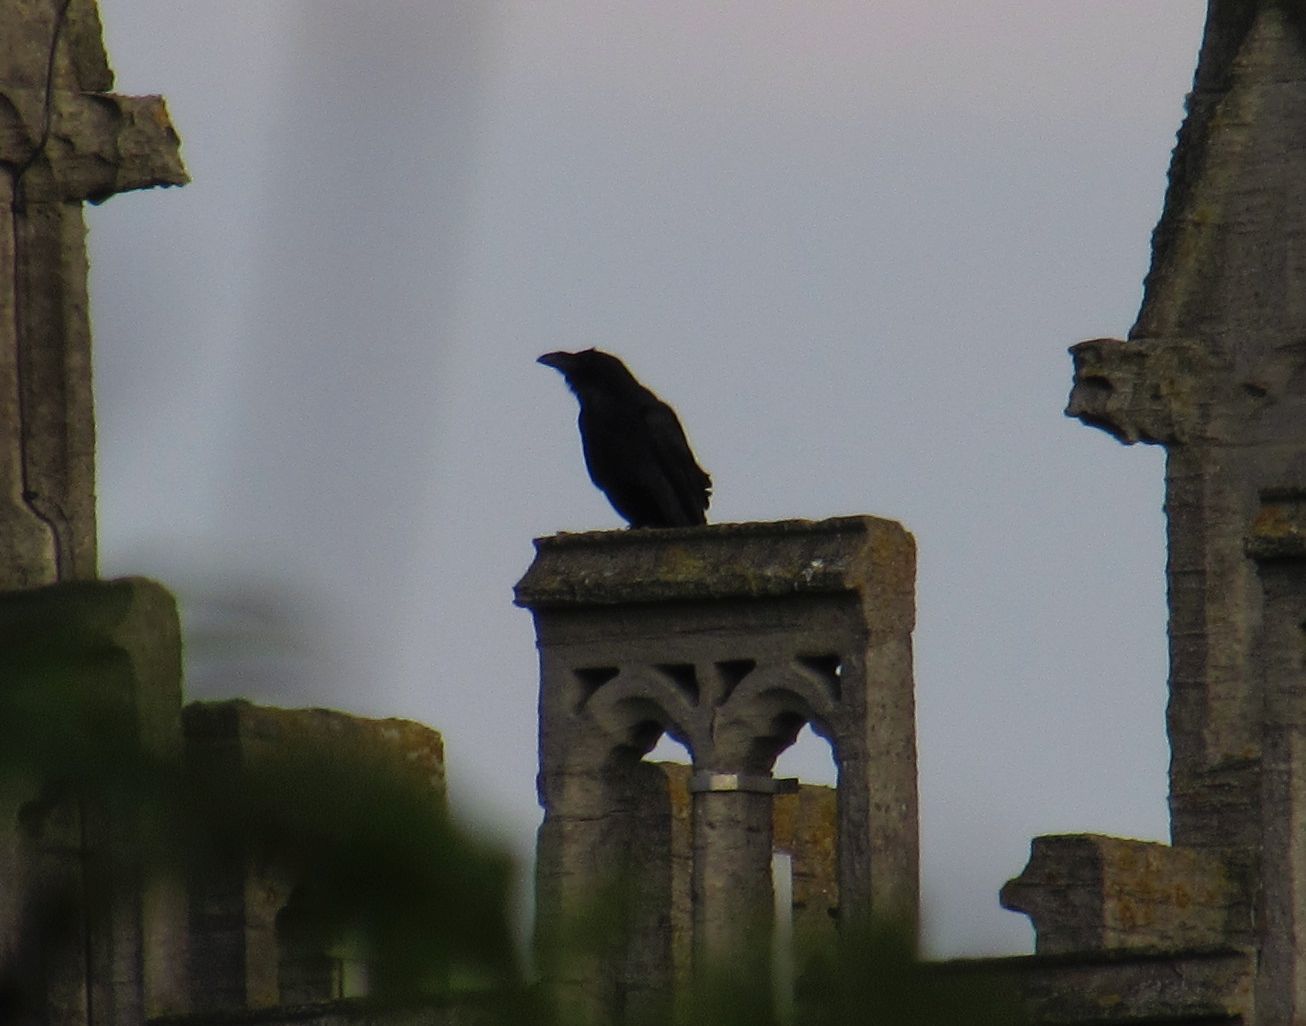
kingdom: Animalia
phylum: Chordata
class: Aves
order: Passeriformes
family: Corvidae
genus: Corvus
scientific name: Corvus corax
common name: Common raven
